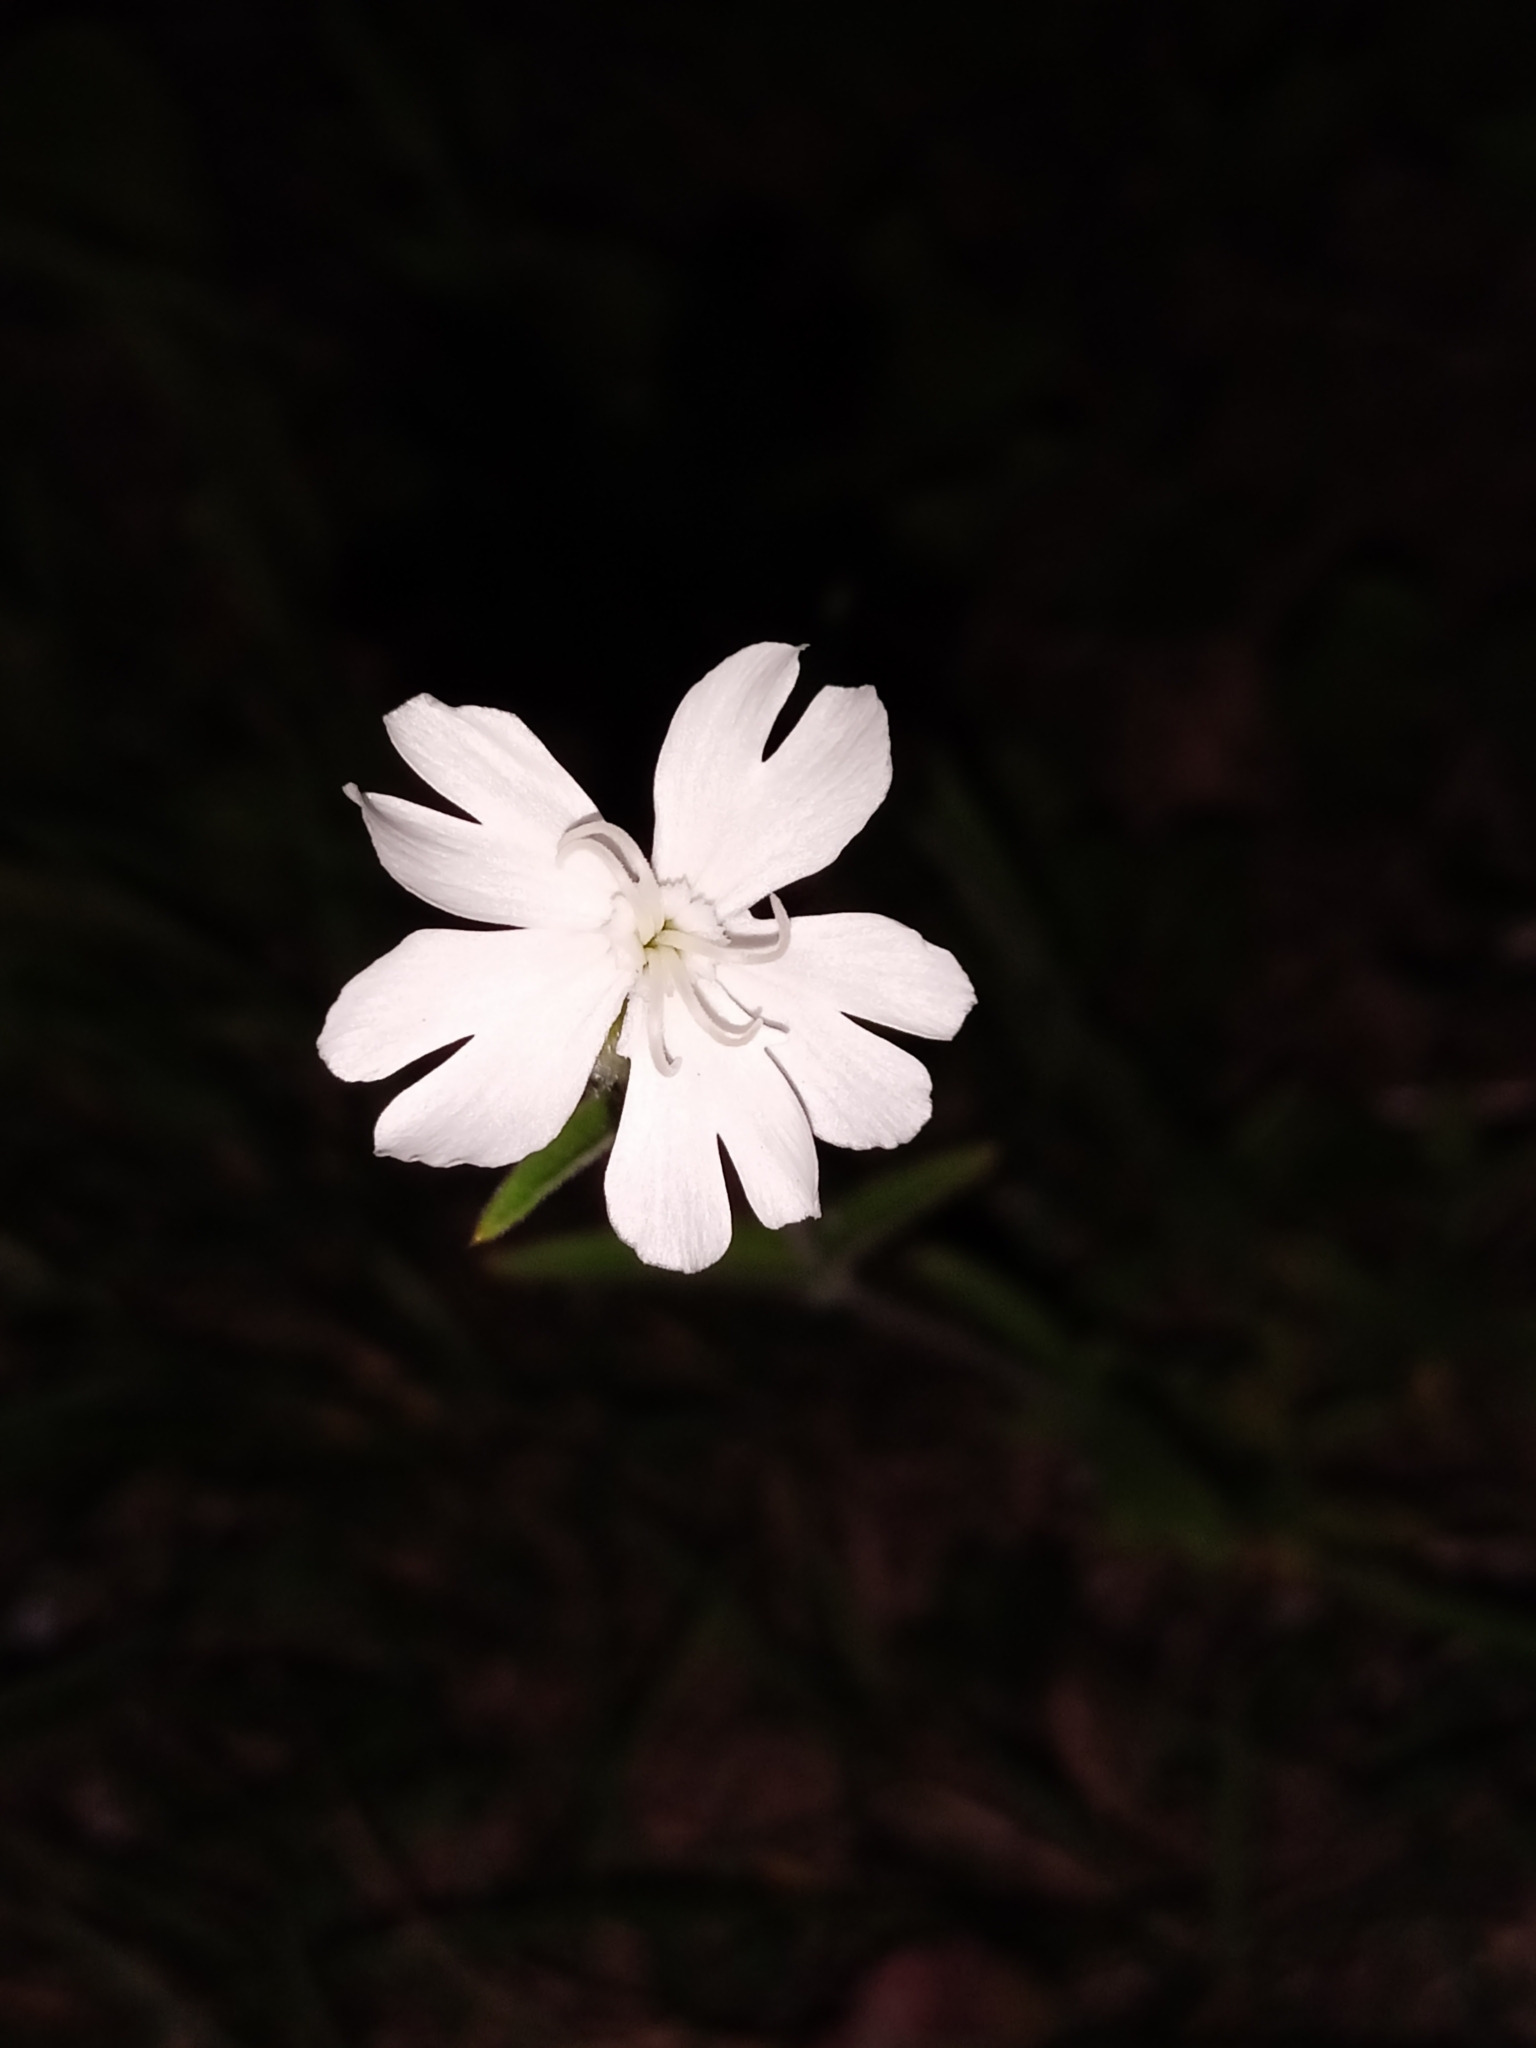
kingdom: Plantae
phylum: Tracheophyta
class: Magnoliopsida
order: Caryophyllales
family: Caryophyllaceae
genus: Silene
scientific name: Silene latifolia
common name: White campion
